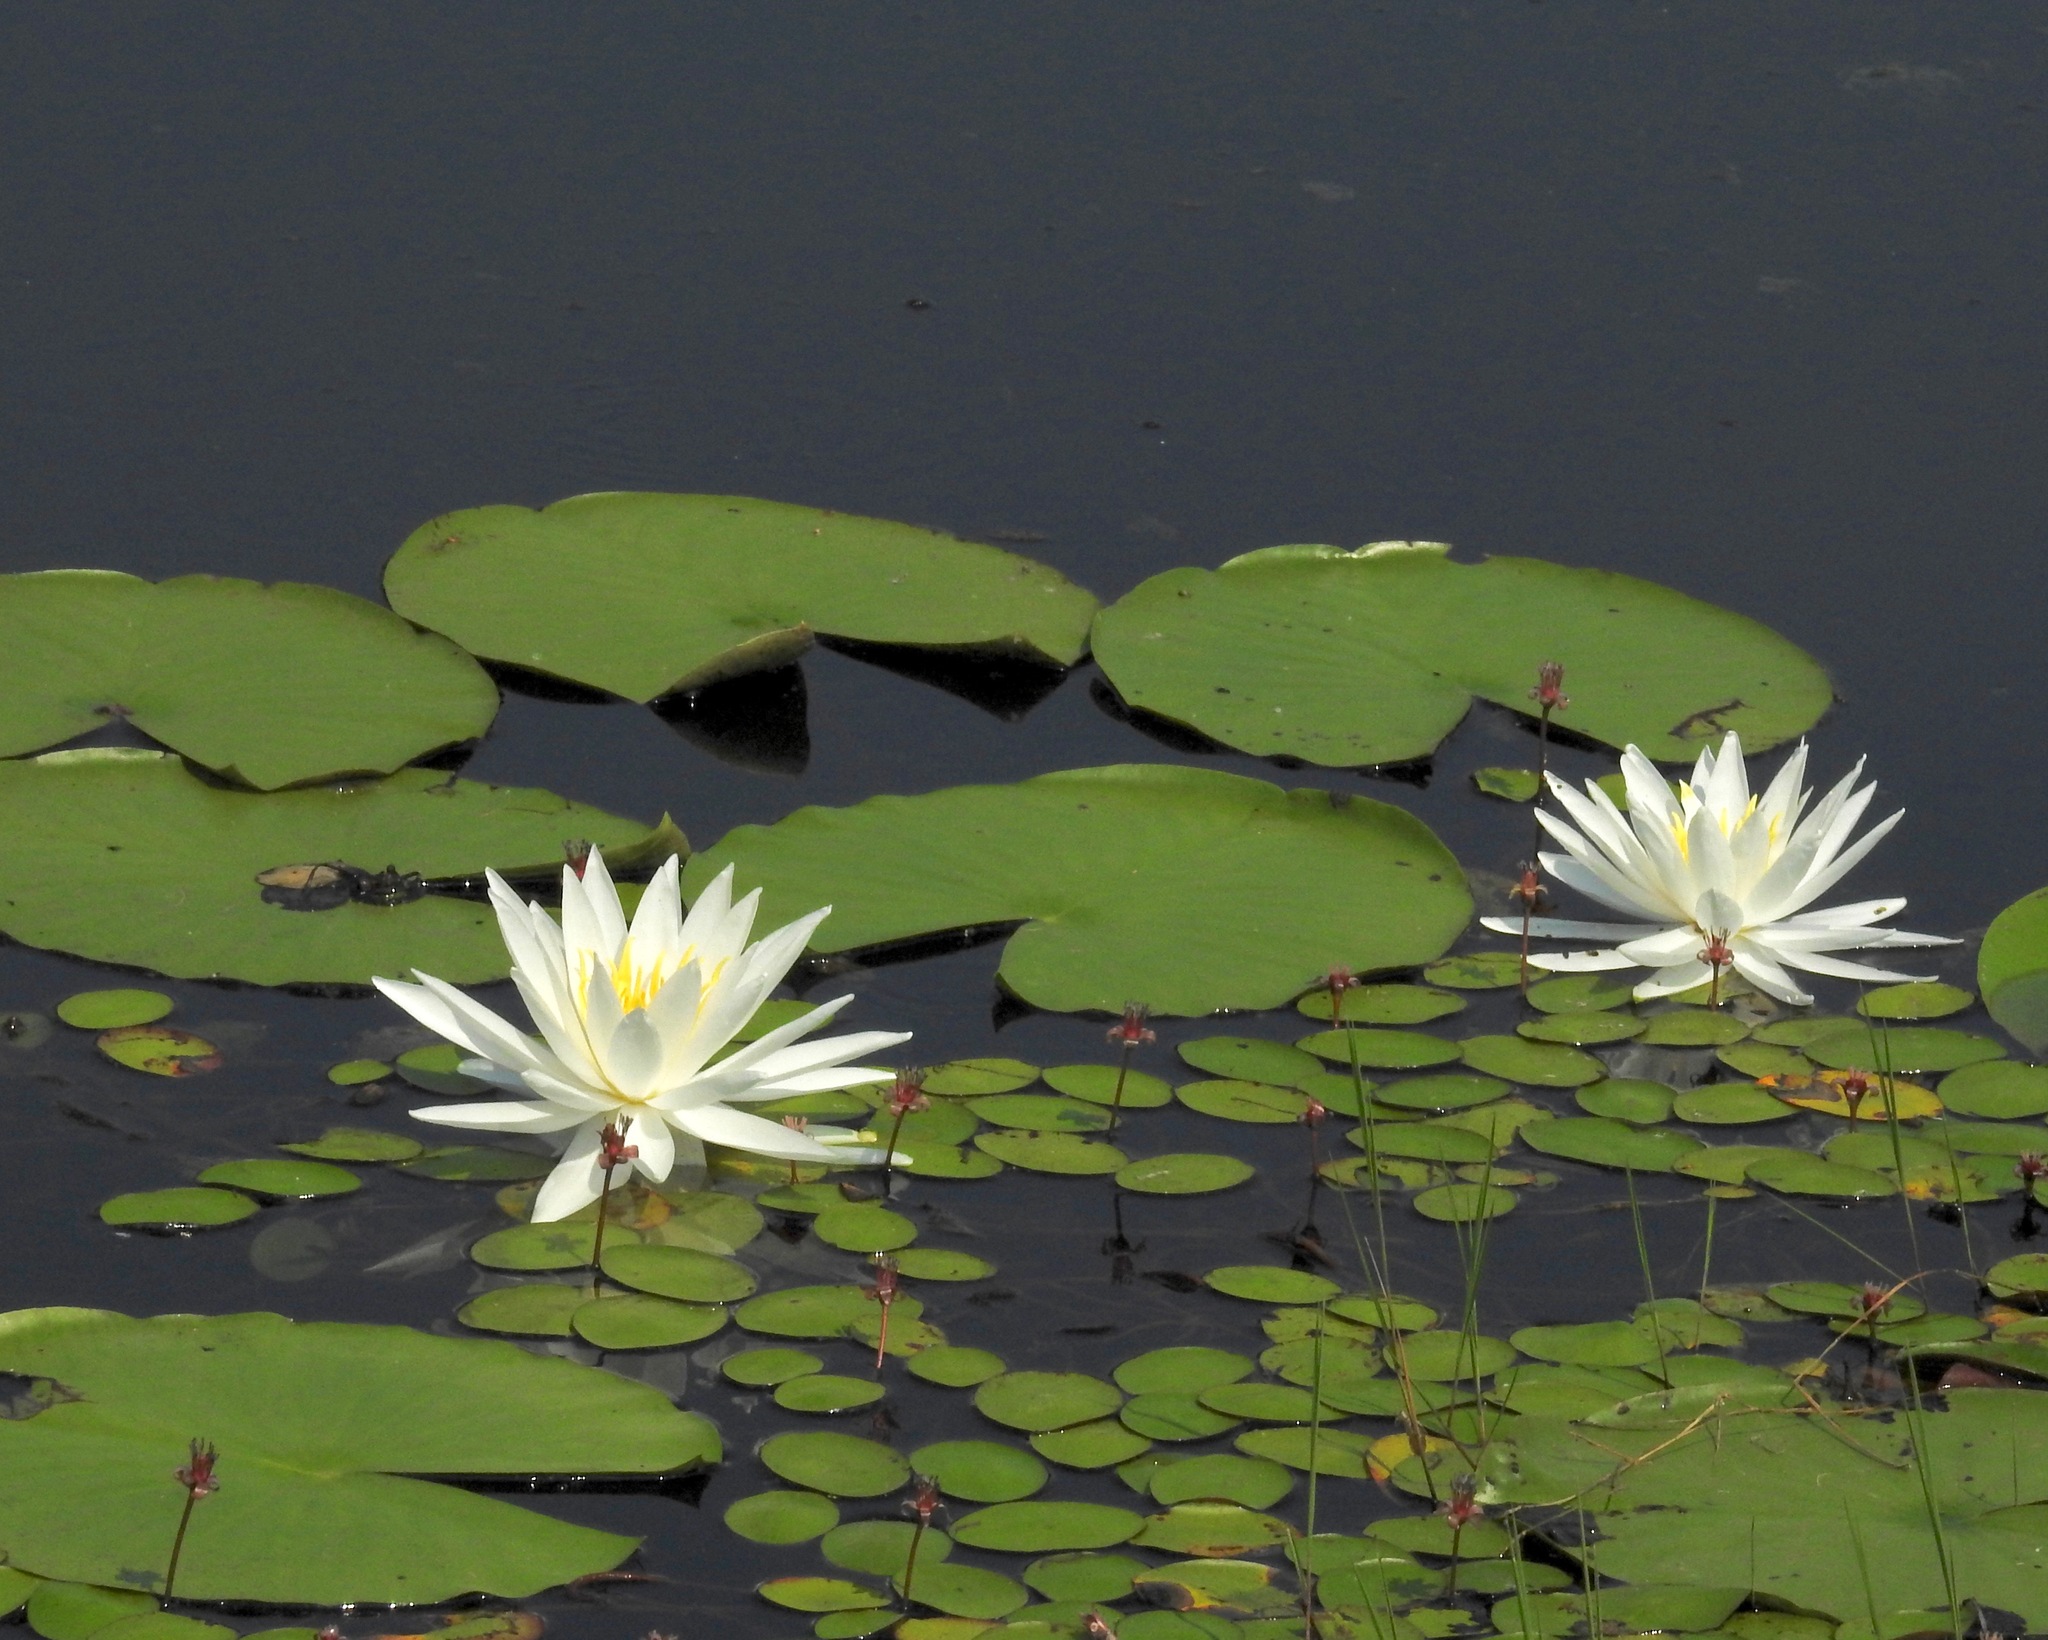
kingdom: Plantae
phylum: Tracheophyta
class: Magnoliopsida
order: Nymphaeales
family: Nymphaeaceae
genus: Nymphaea
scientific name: Nymphaea odorata
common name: Fragrant water-lily
